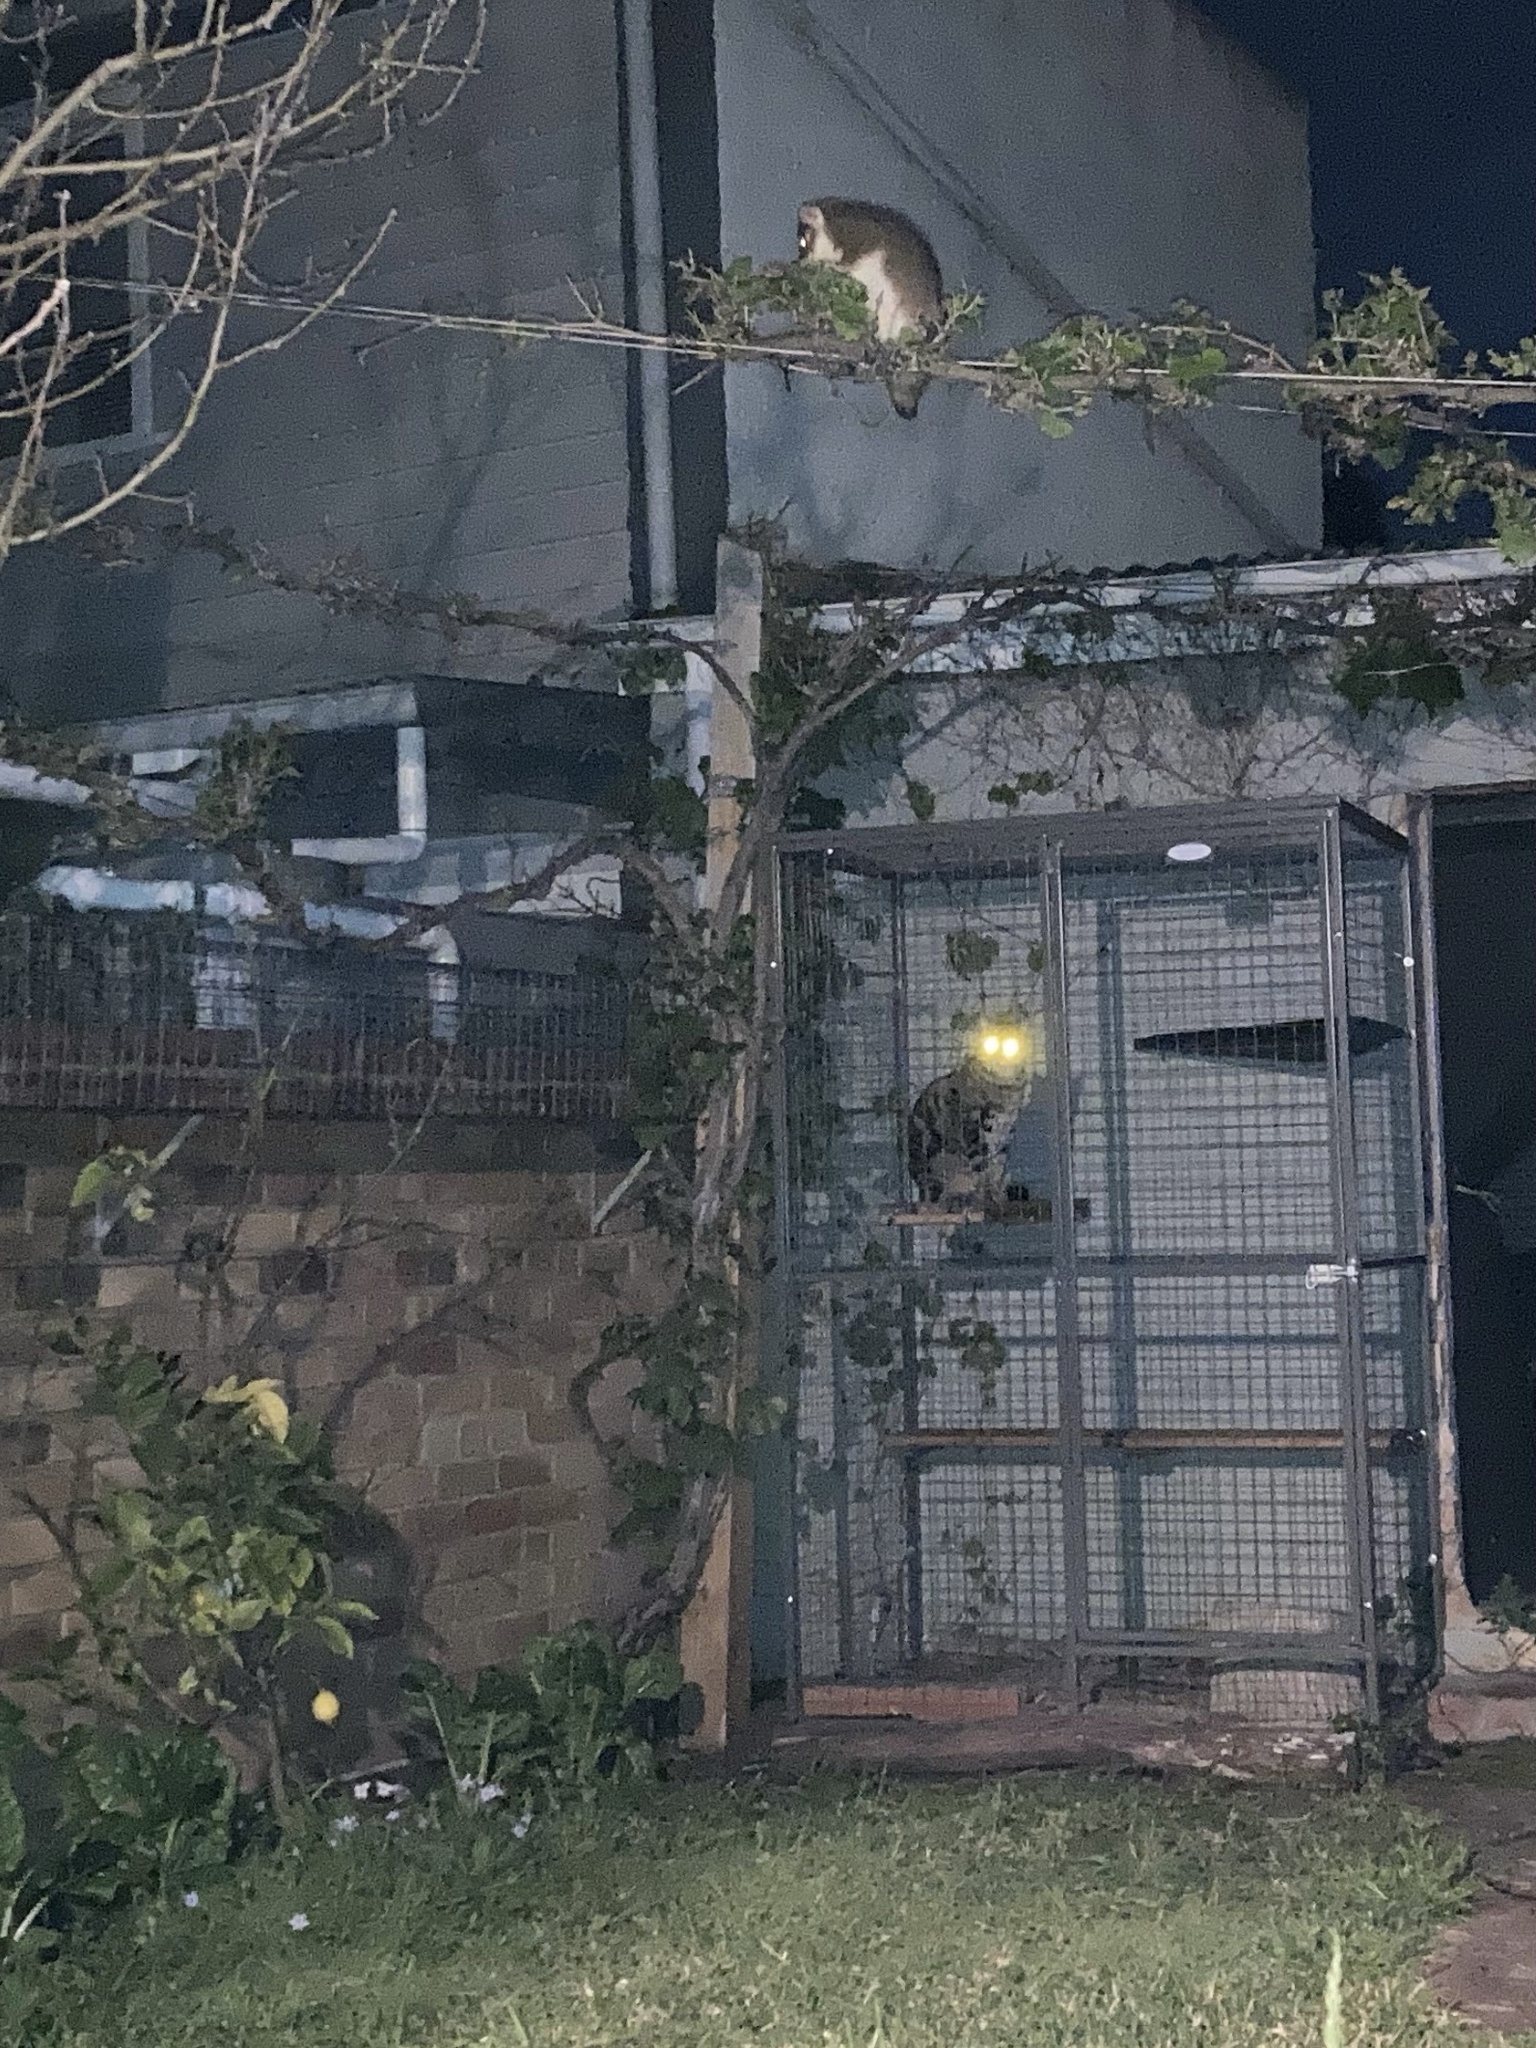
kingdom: Animalia
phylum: Chordata
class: Mammalia
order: Diprotodontia
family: Pseudocheiridae
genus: Pseudocheirus
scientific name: Pseudocheirus peregrinus
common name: Common ringtail possum
